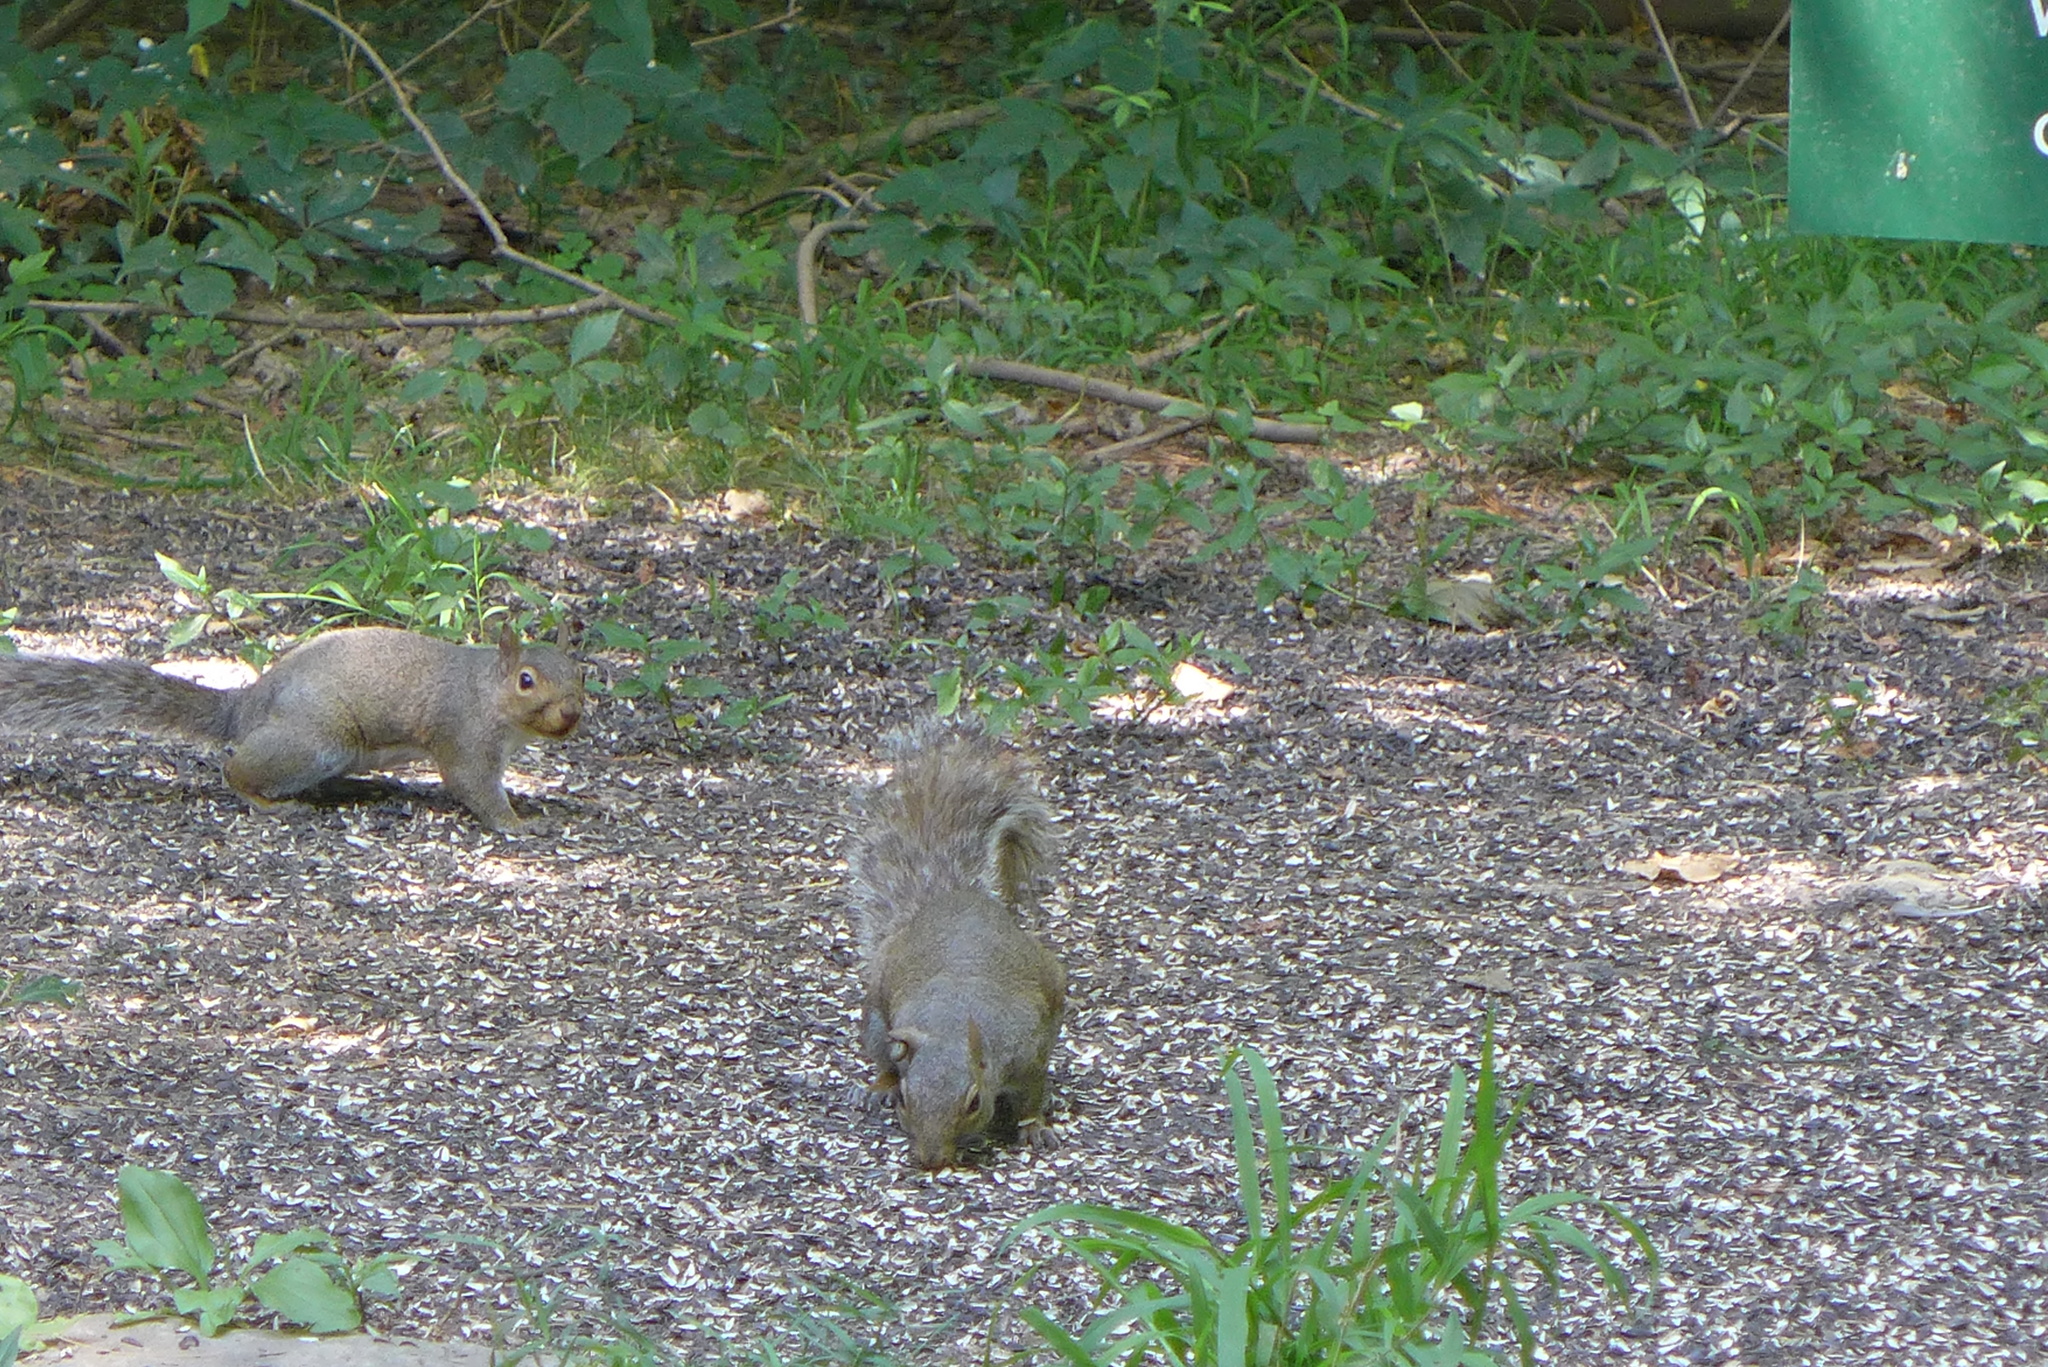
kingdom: Animalia
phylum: Chordata
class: Mammalia
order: Rodentia
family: Sciuridae
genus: Sciurus
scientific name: Sciurus carolinensis
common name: Eastern gray squirrel
